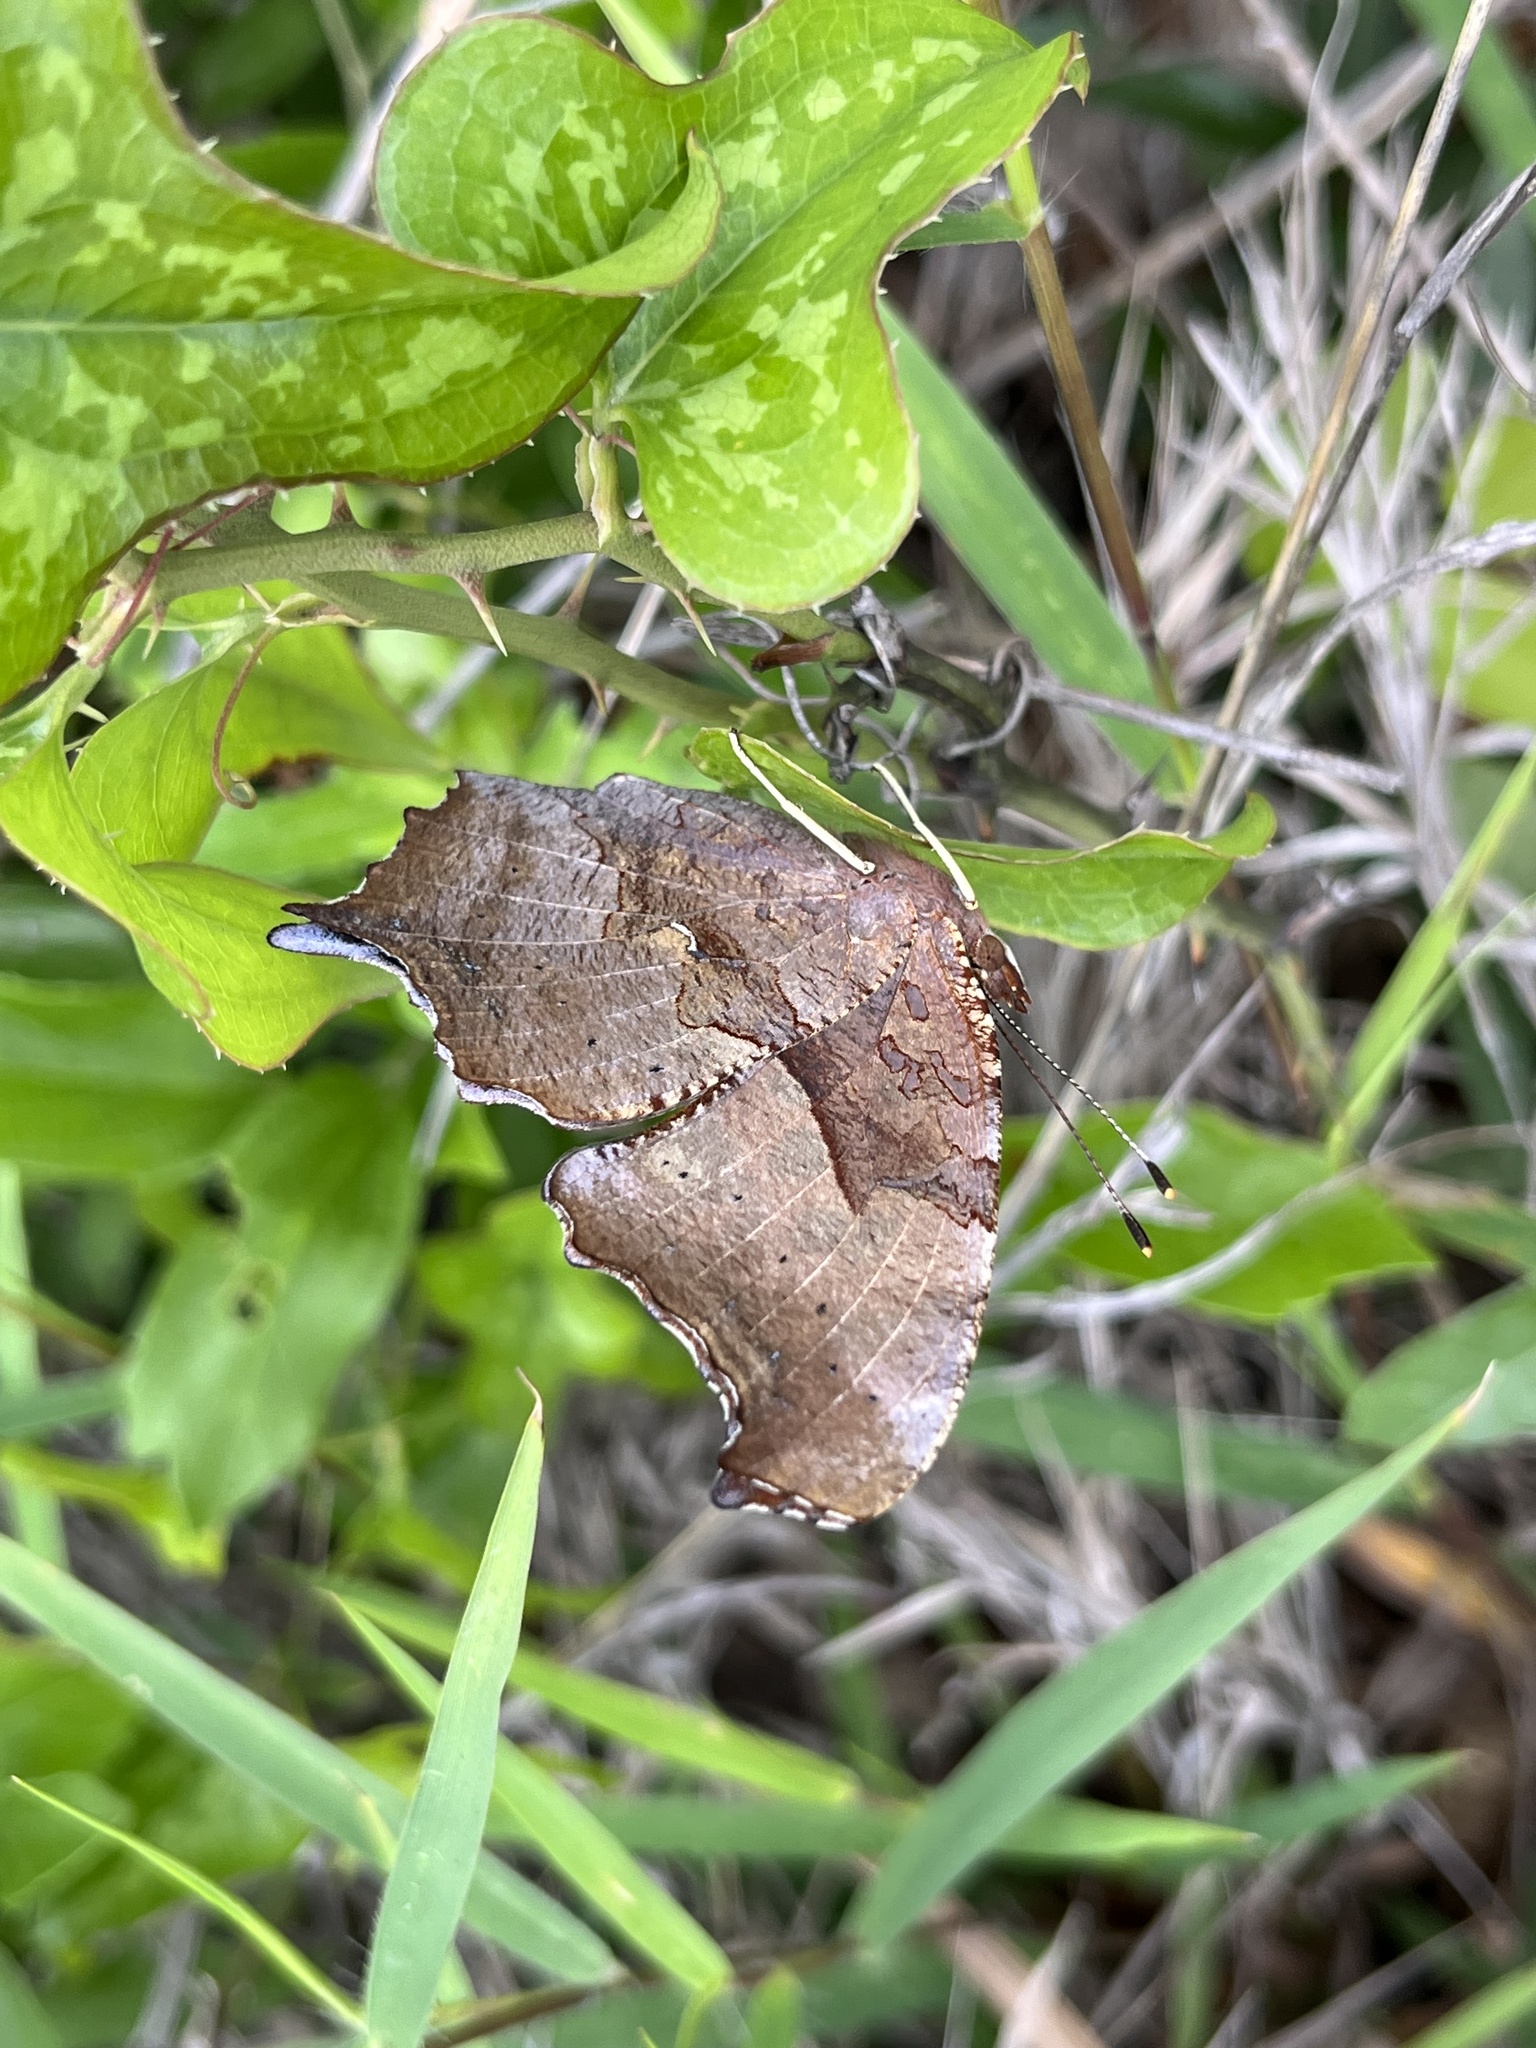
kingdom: Animalia
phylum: Arthropoda
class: Insecta
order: Lepidoptera
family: Nymphalidae
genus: Polygonia
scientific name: Polygonia interrogationis
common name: Question mark
